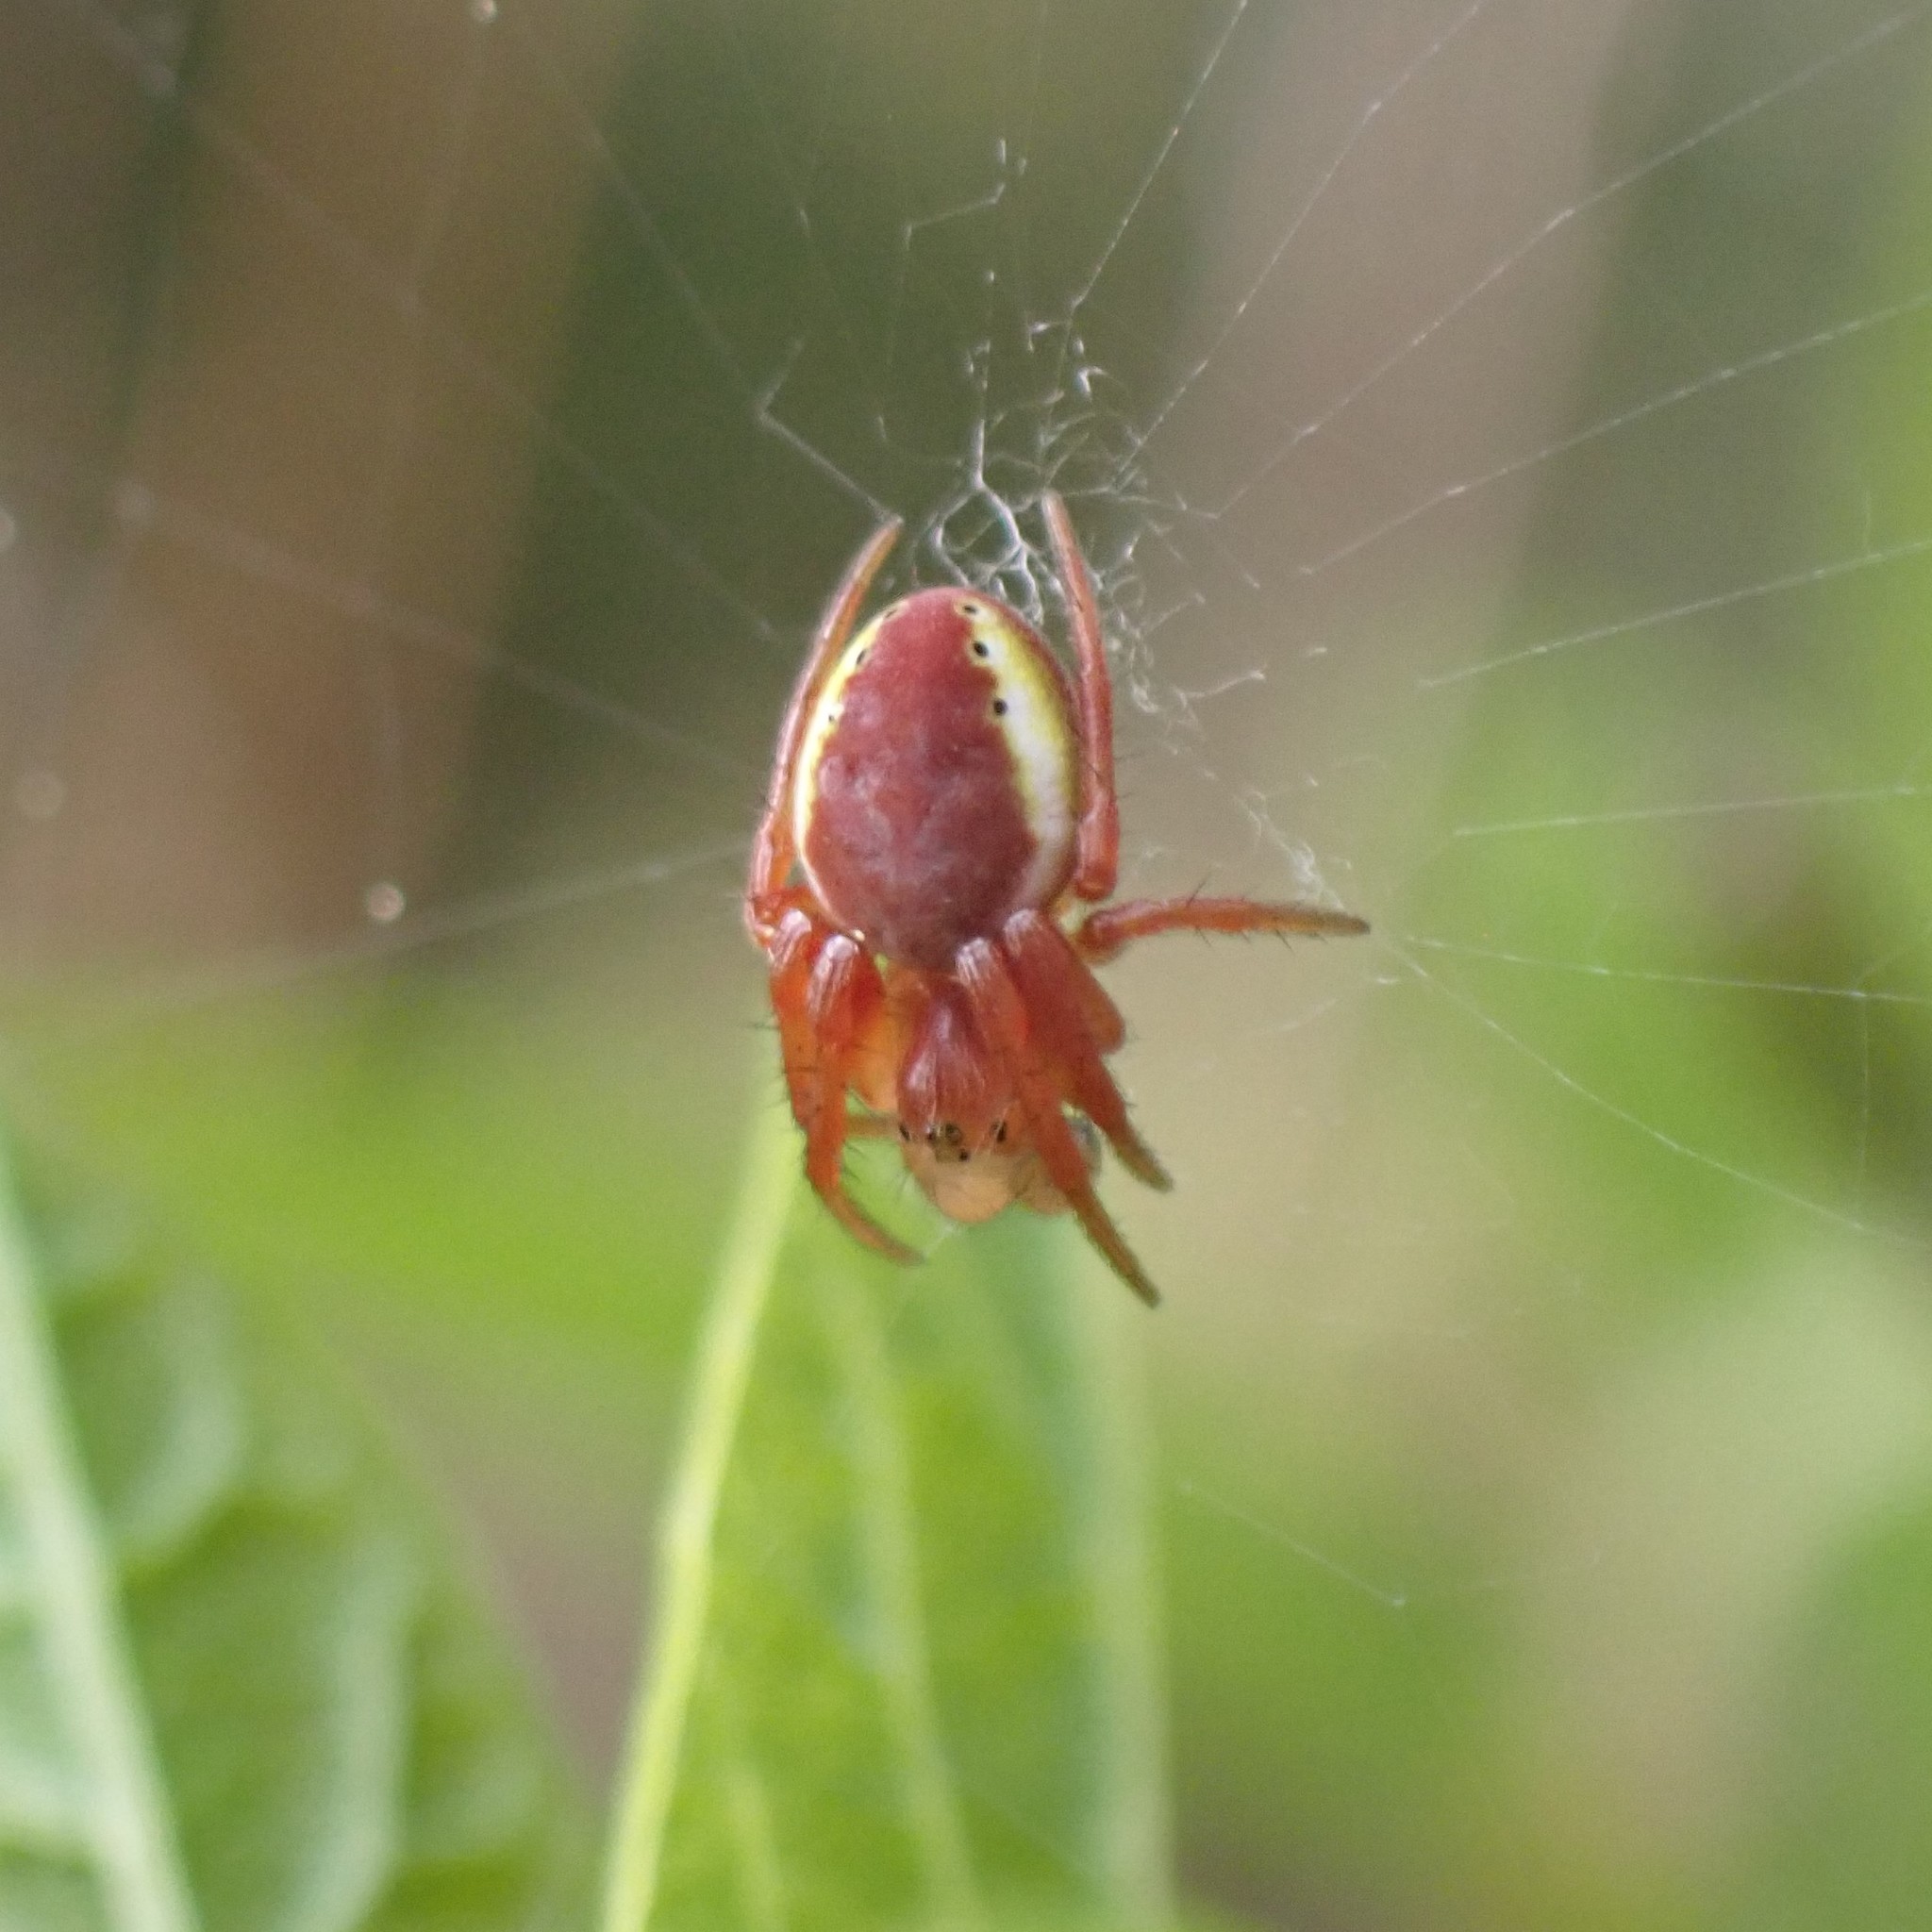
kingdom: Animalia
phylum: Arthropoda
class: Arachnida
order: Araneae
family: Araneidae
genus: Araniella
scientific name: Araniella displicata
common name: Sixspotted orb weaver
